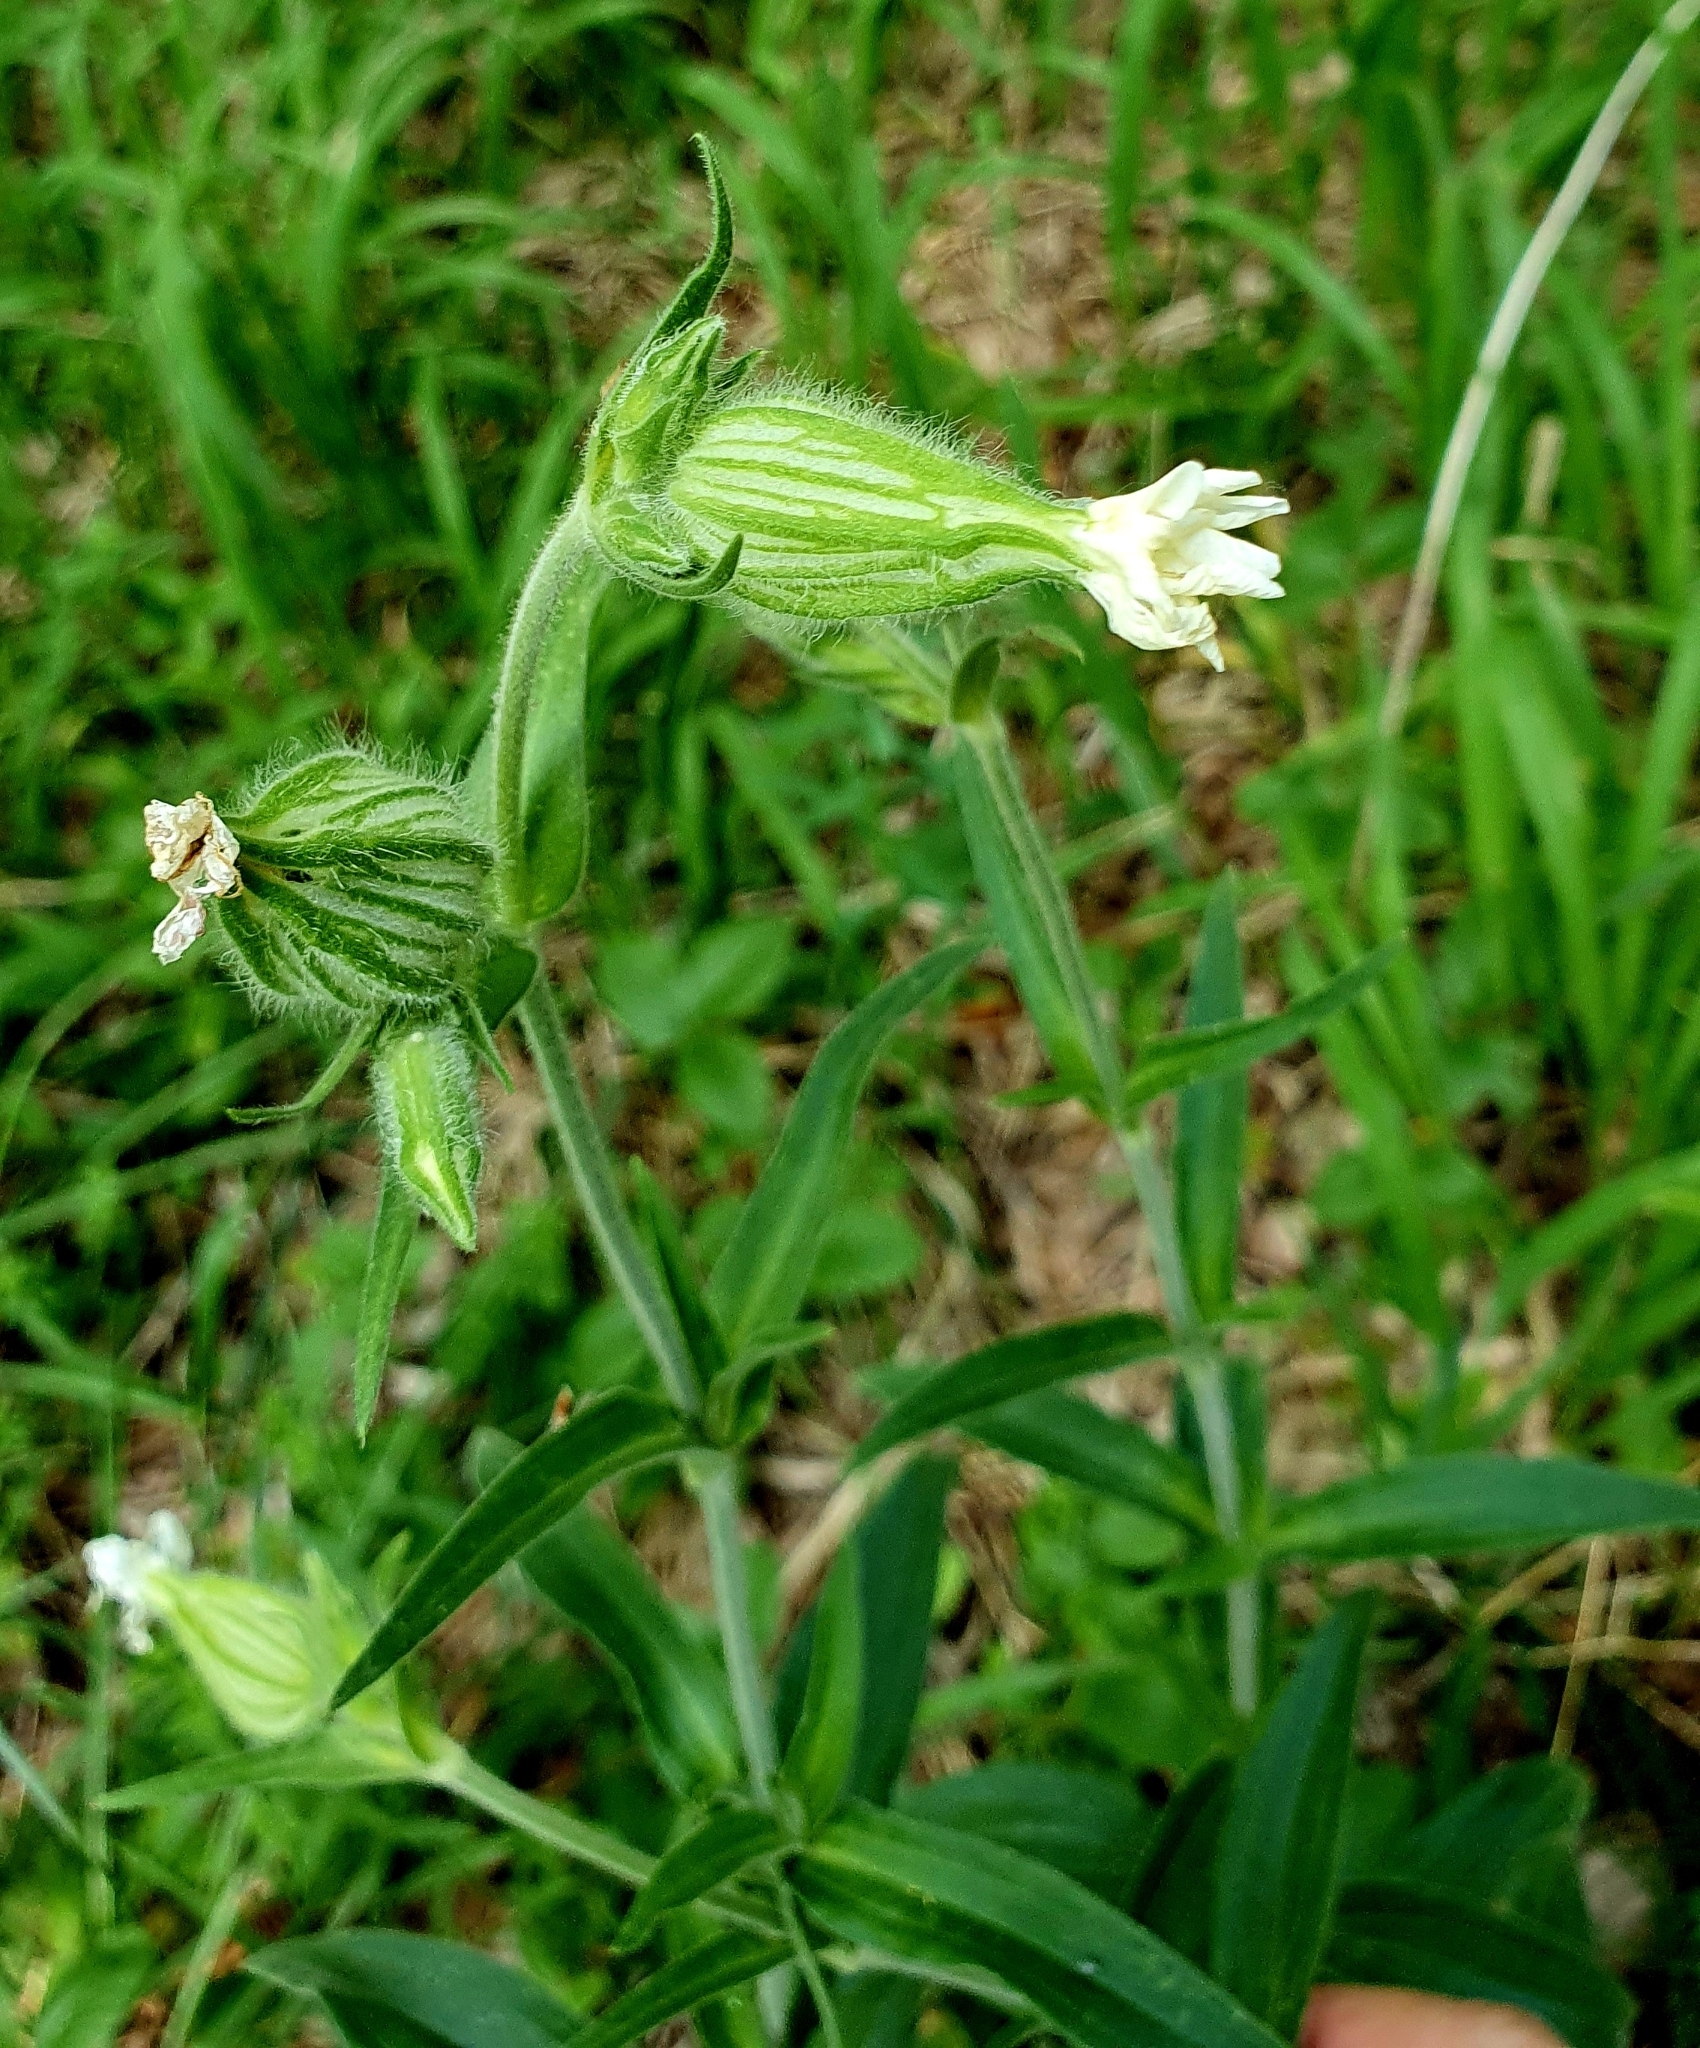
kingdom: Plantae
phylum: Tracheophyta
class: Magnoliopsida
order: Caryophyllales
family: Caryophyllaceae
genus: Silene
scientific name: Silene latifolia
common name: White campion
